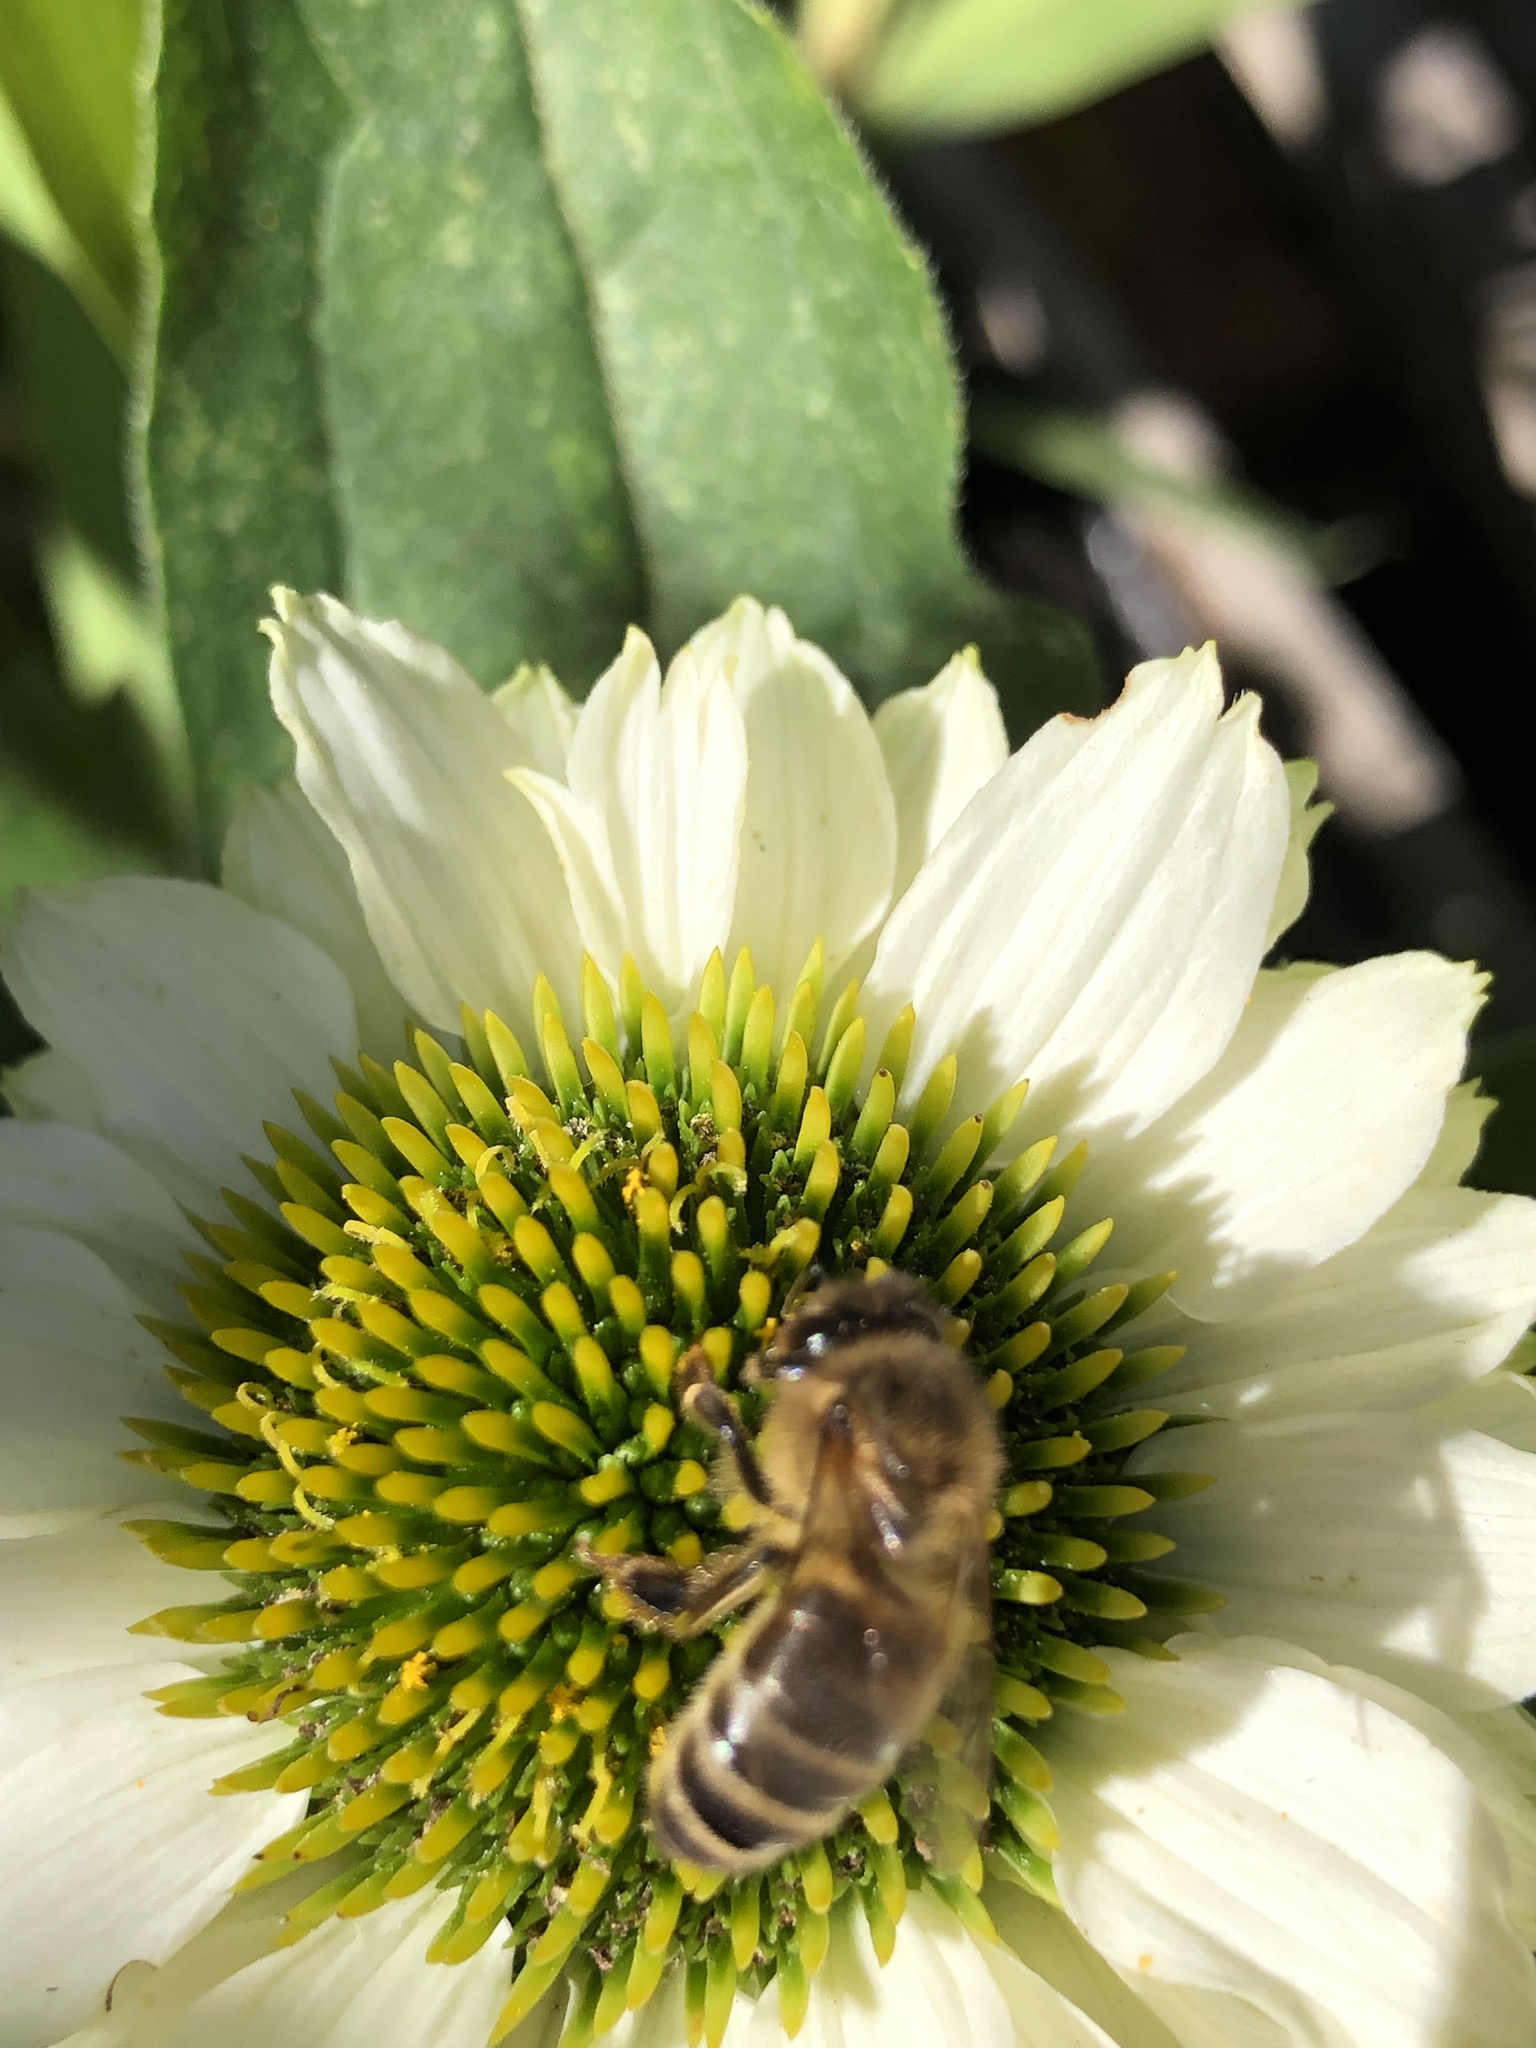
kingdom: Animalia
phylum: Arthropoda
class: Insecta
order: Hymenoptera
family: Apidae
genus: Apis
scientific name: Apis mellifera
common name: Honey bee
